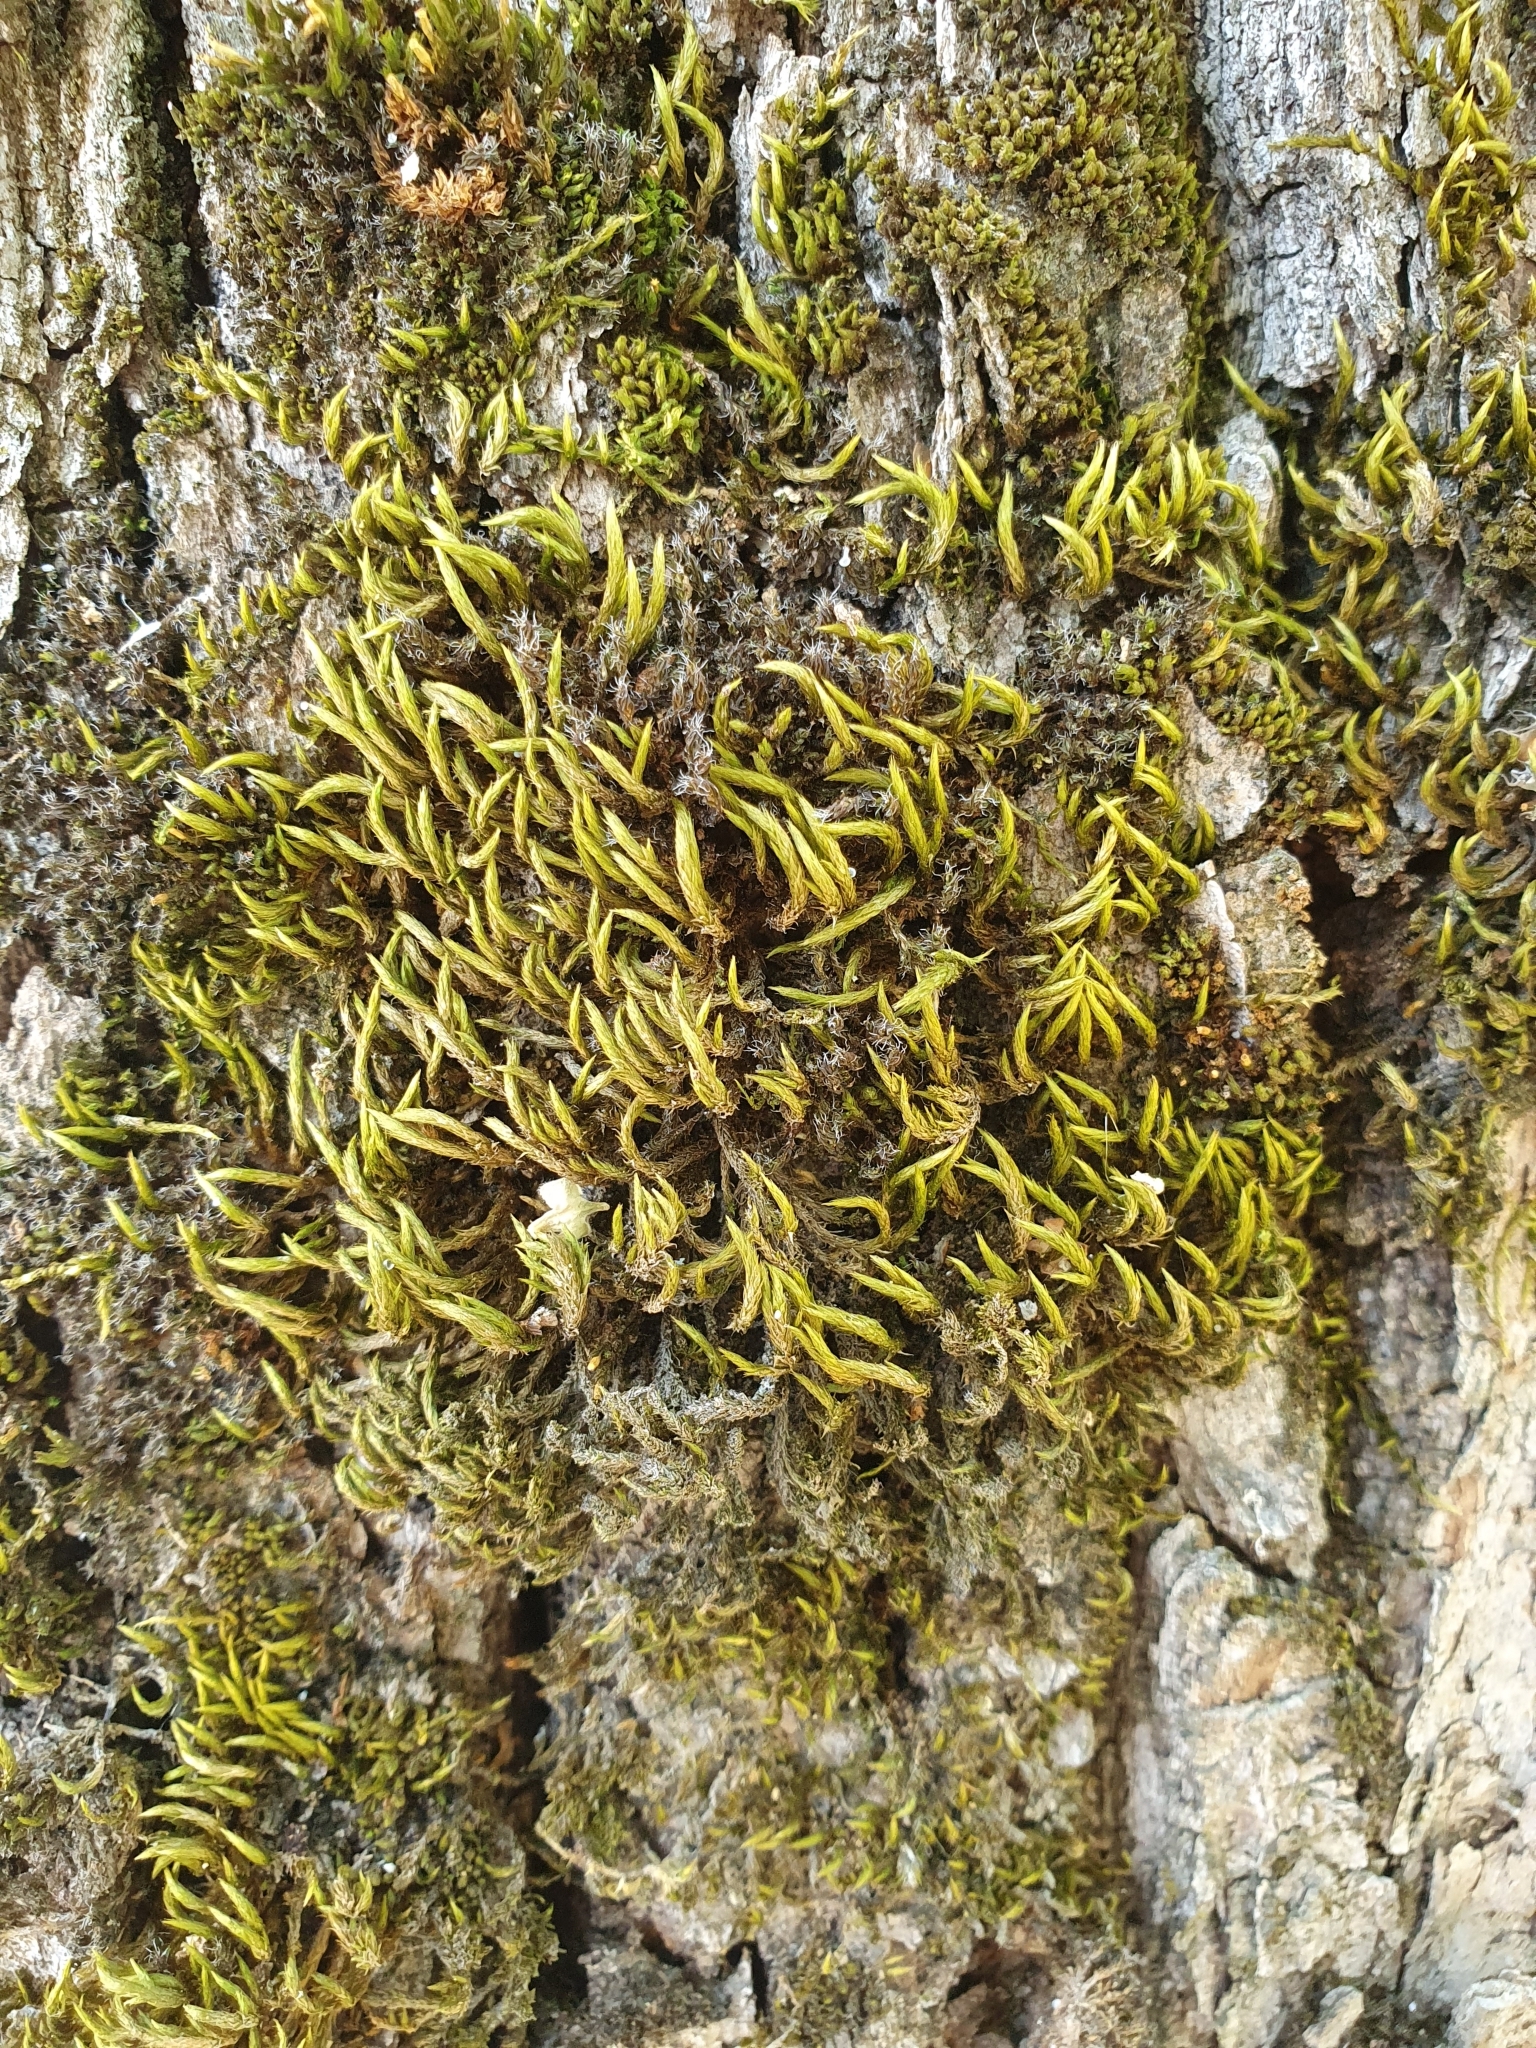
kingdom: Plantae
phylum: Bryophyta
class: Bryopsida
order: Hypnales
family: Leucodontaceae
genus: Leucodon
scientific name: Leucodon sciuroides
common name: Squirrel-tail moss
